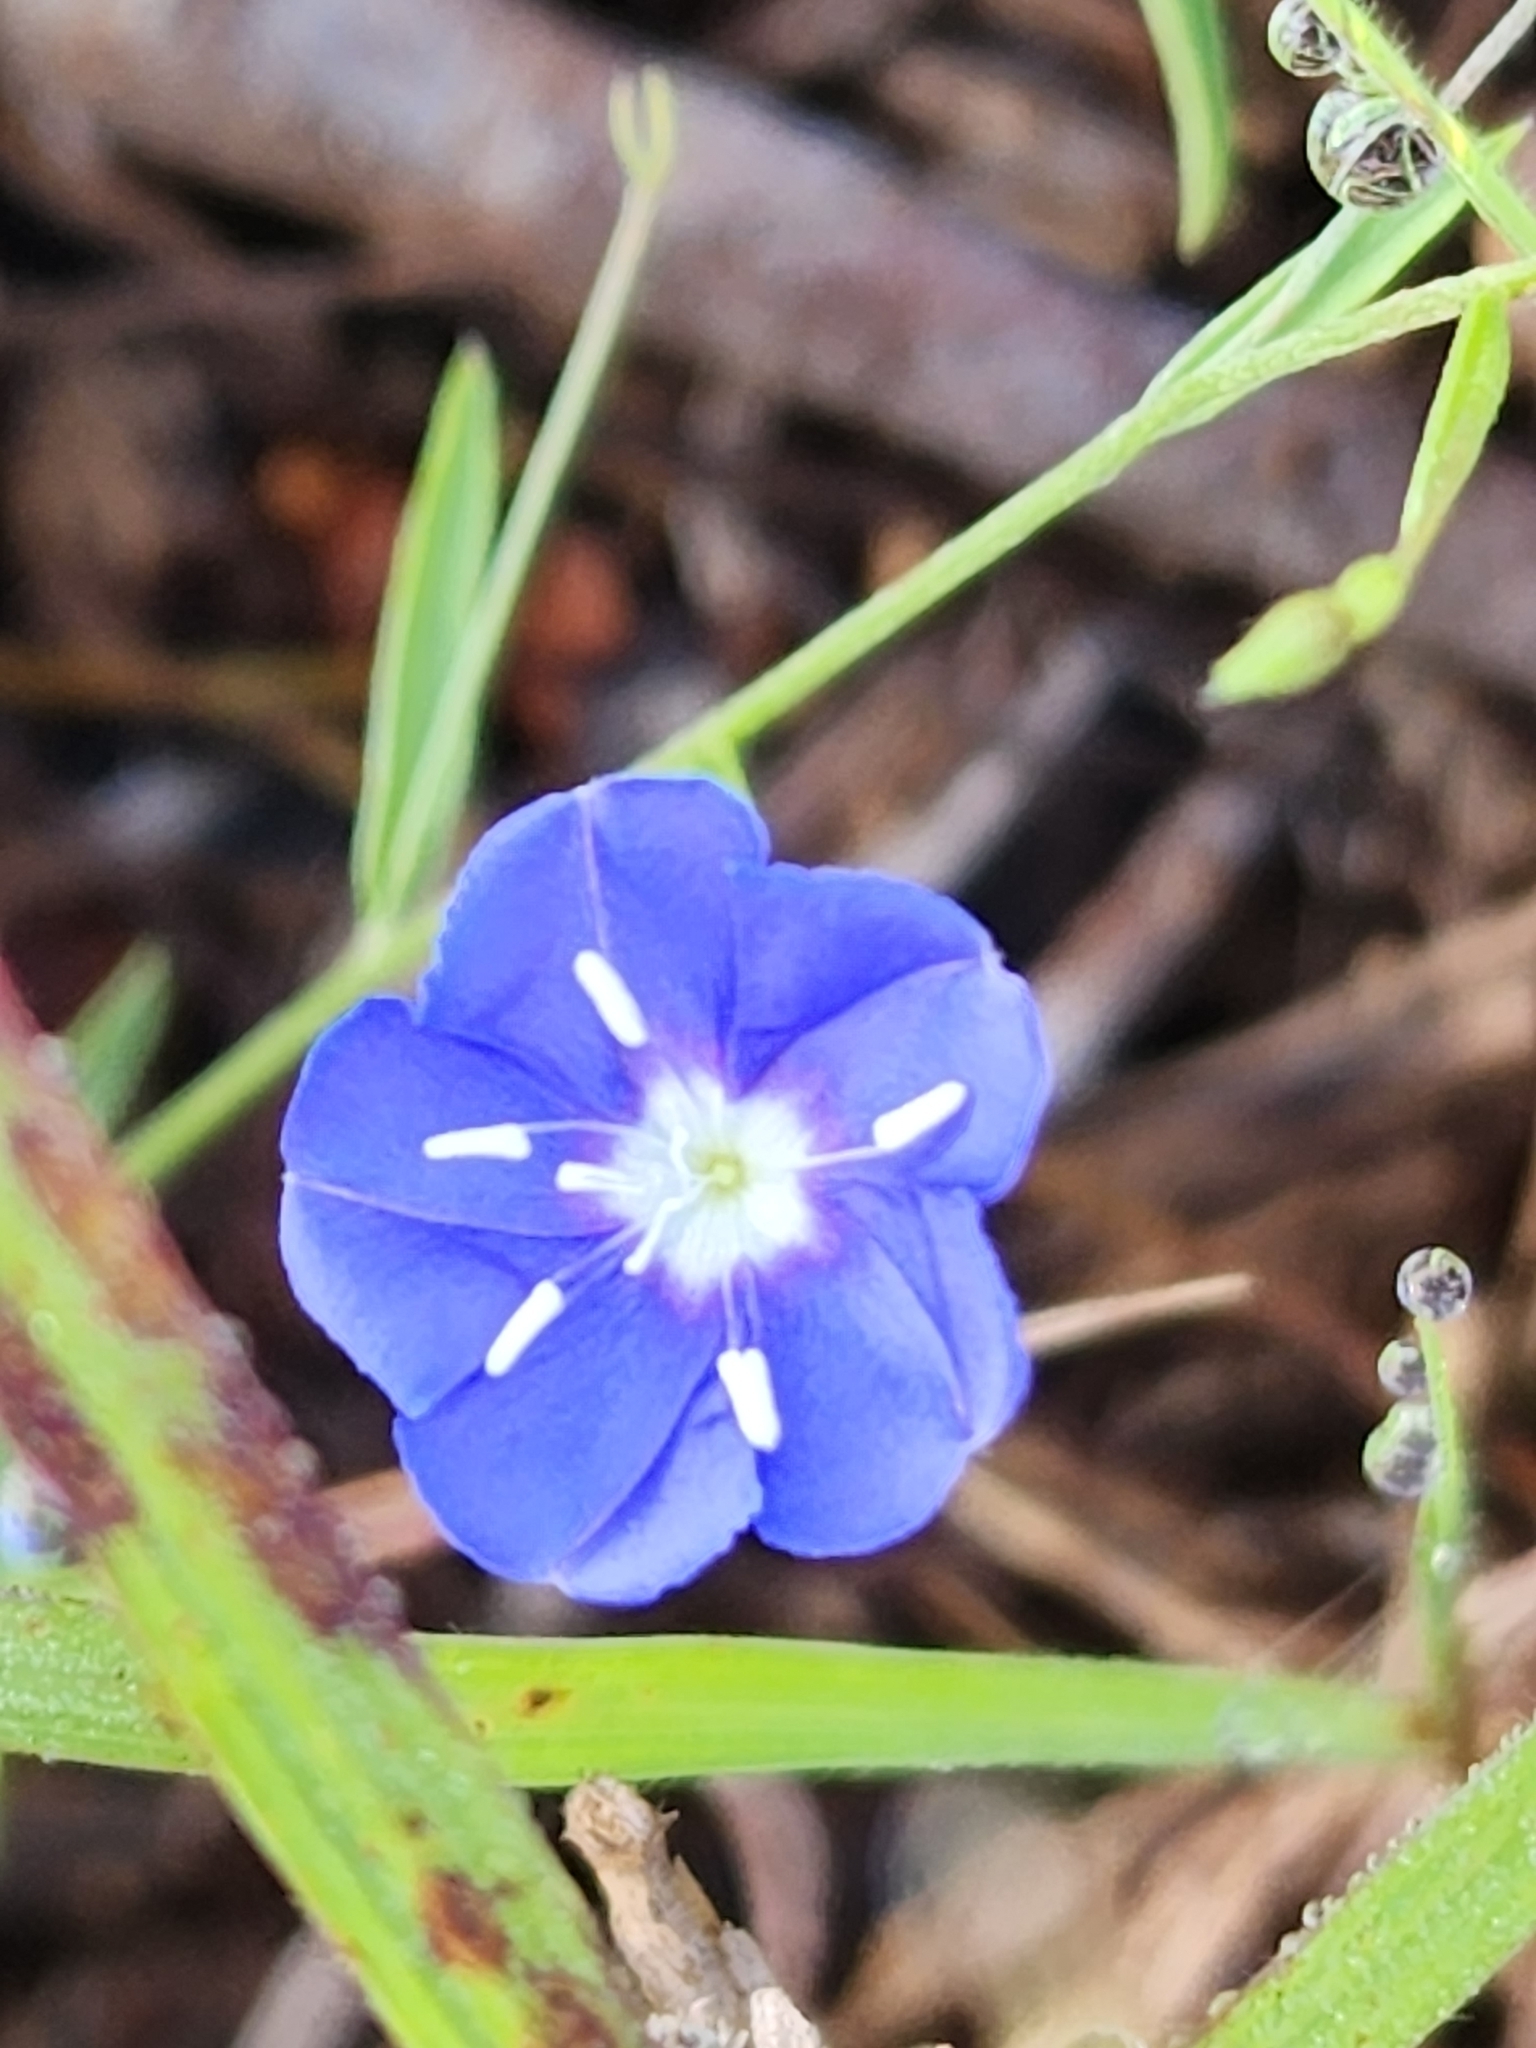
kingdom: Plantae
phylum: Tracheophyta
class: Magnoliopsida
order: Solanales
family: Convolvulaceae
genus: Evolvulus
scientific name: Evolvulus alsinoides
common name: Slender dwarf morning-glory
